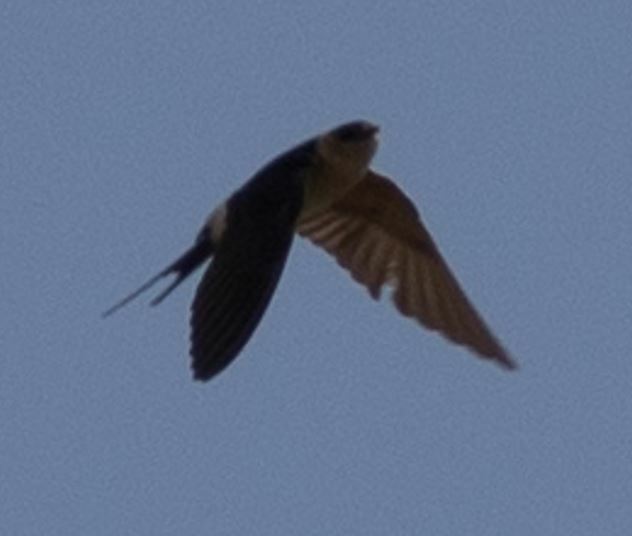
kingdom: Animalia
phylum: Chordata
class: Aves
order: Passeriformes
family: Hirundinidae
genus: Cecropis
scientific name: Cecropis daurica
